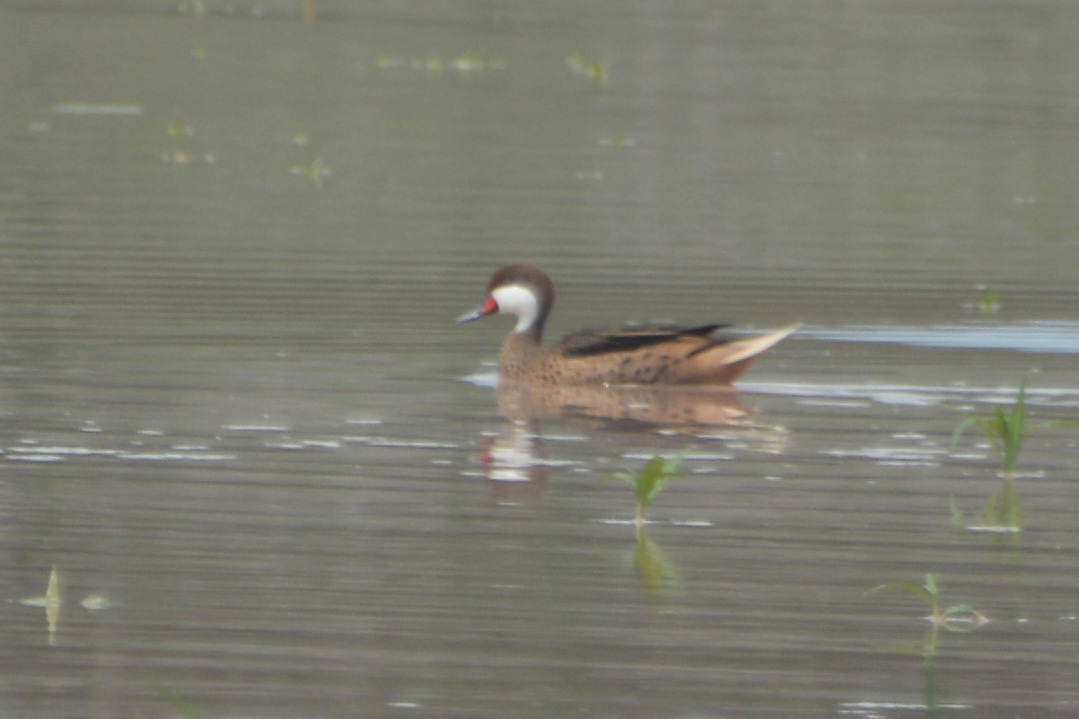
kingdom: Animalia
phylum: Chordata
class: Aves
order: Anseriformes
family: Anatidae
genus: Anas
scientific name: Anas bahamensis
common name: White-cheeked pintail
